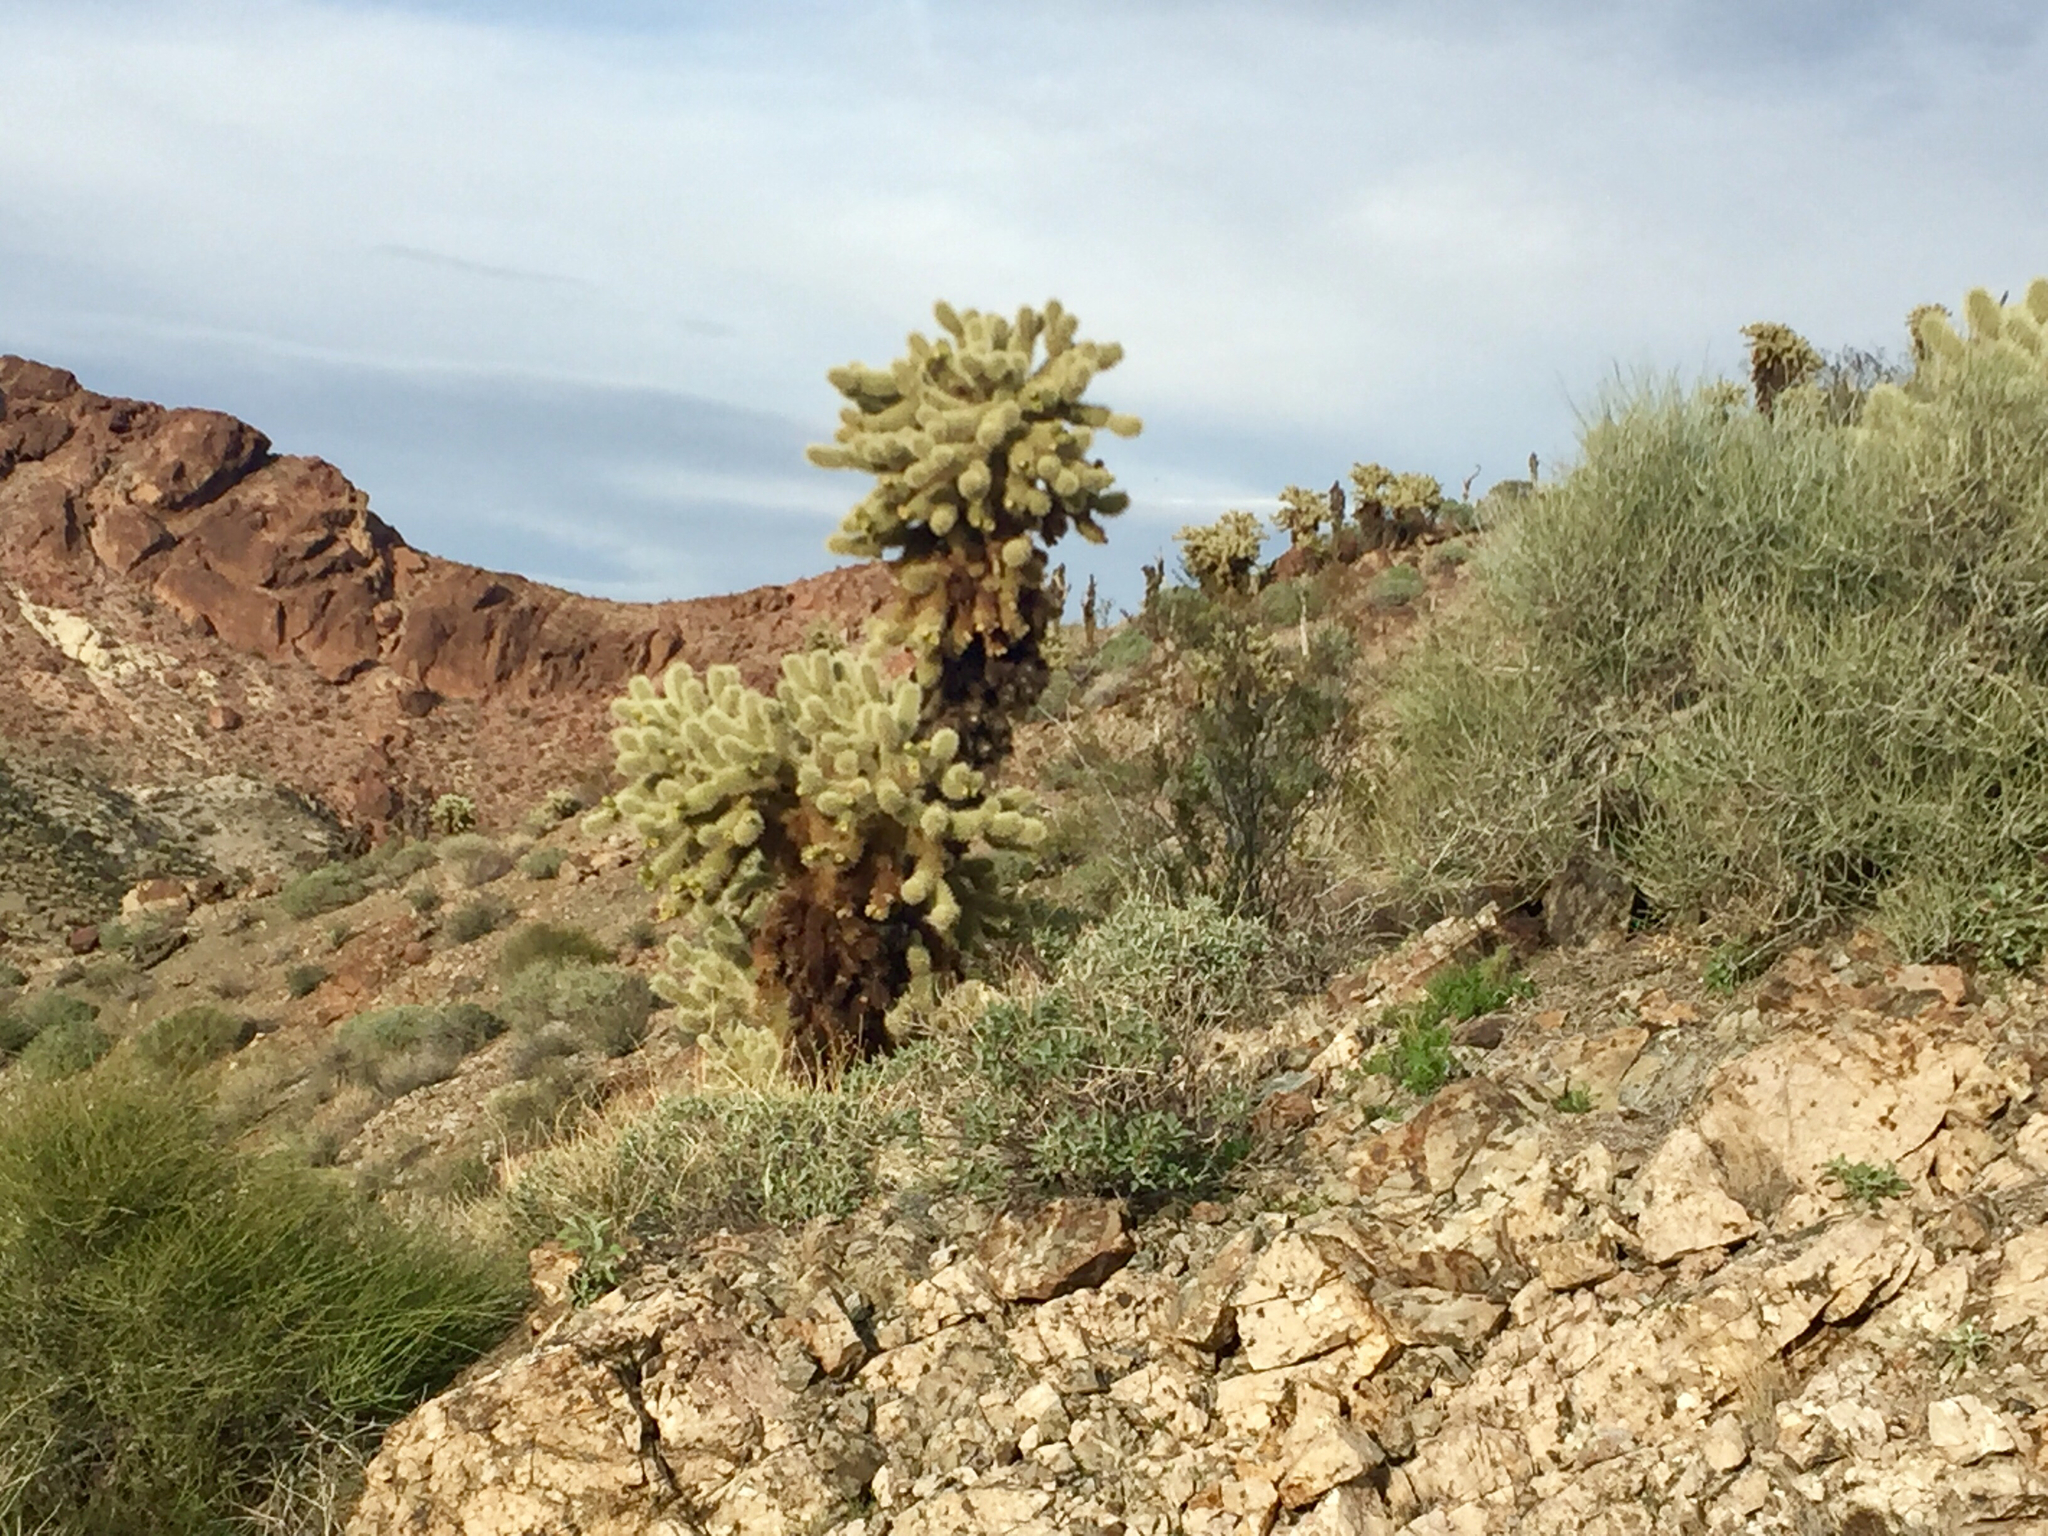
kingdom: Plantae
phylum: Tracheophyta
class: Magnoliopsida
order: Caryophyllales
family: Cactaceae
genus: Cylindropuntia
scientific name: Cylindropuntia fosbergii
